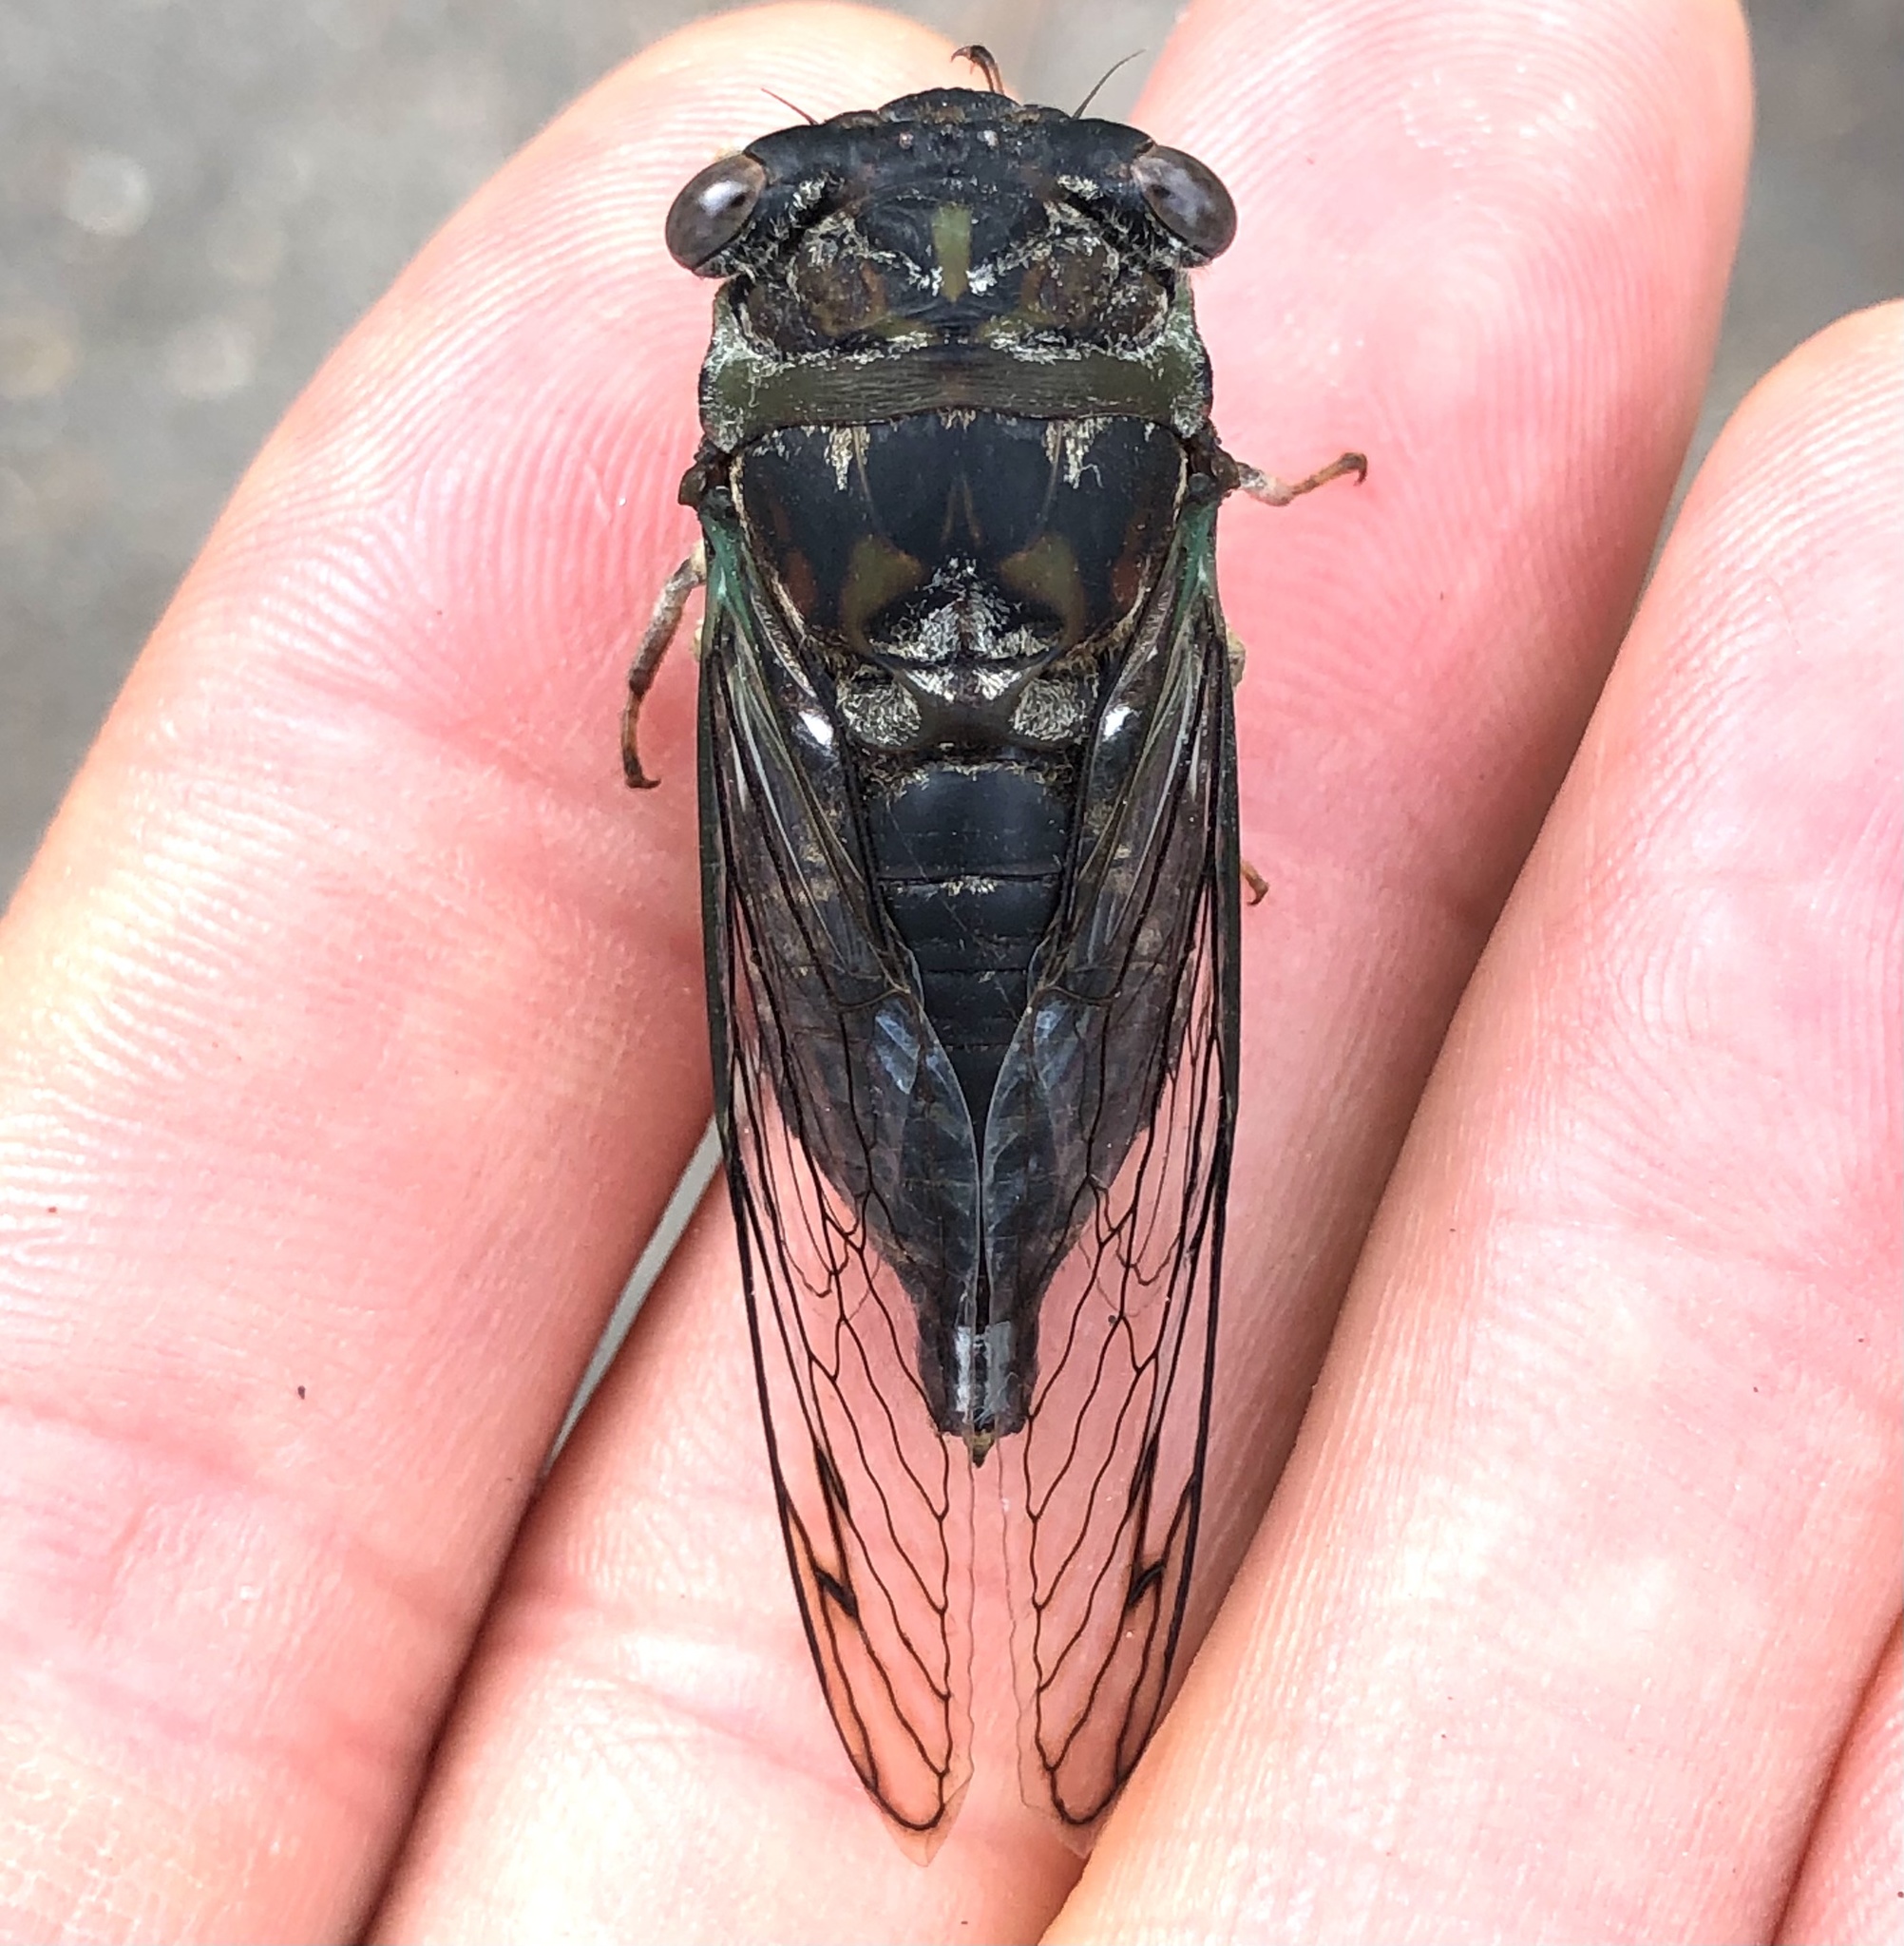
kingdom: Animalia
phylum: Arthropoda
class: Insecta
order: Hemiptera
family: Cicadidae
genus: Neotibicen
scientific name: Neotibicen davisi
